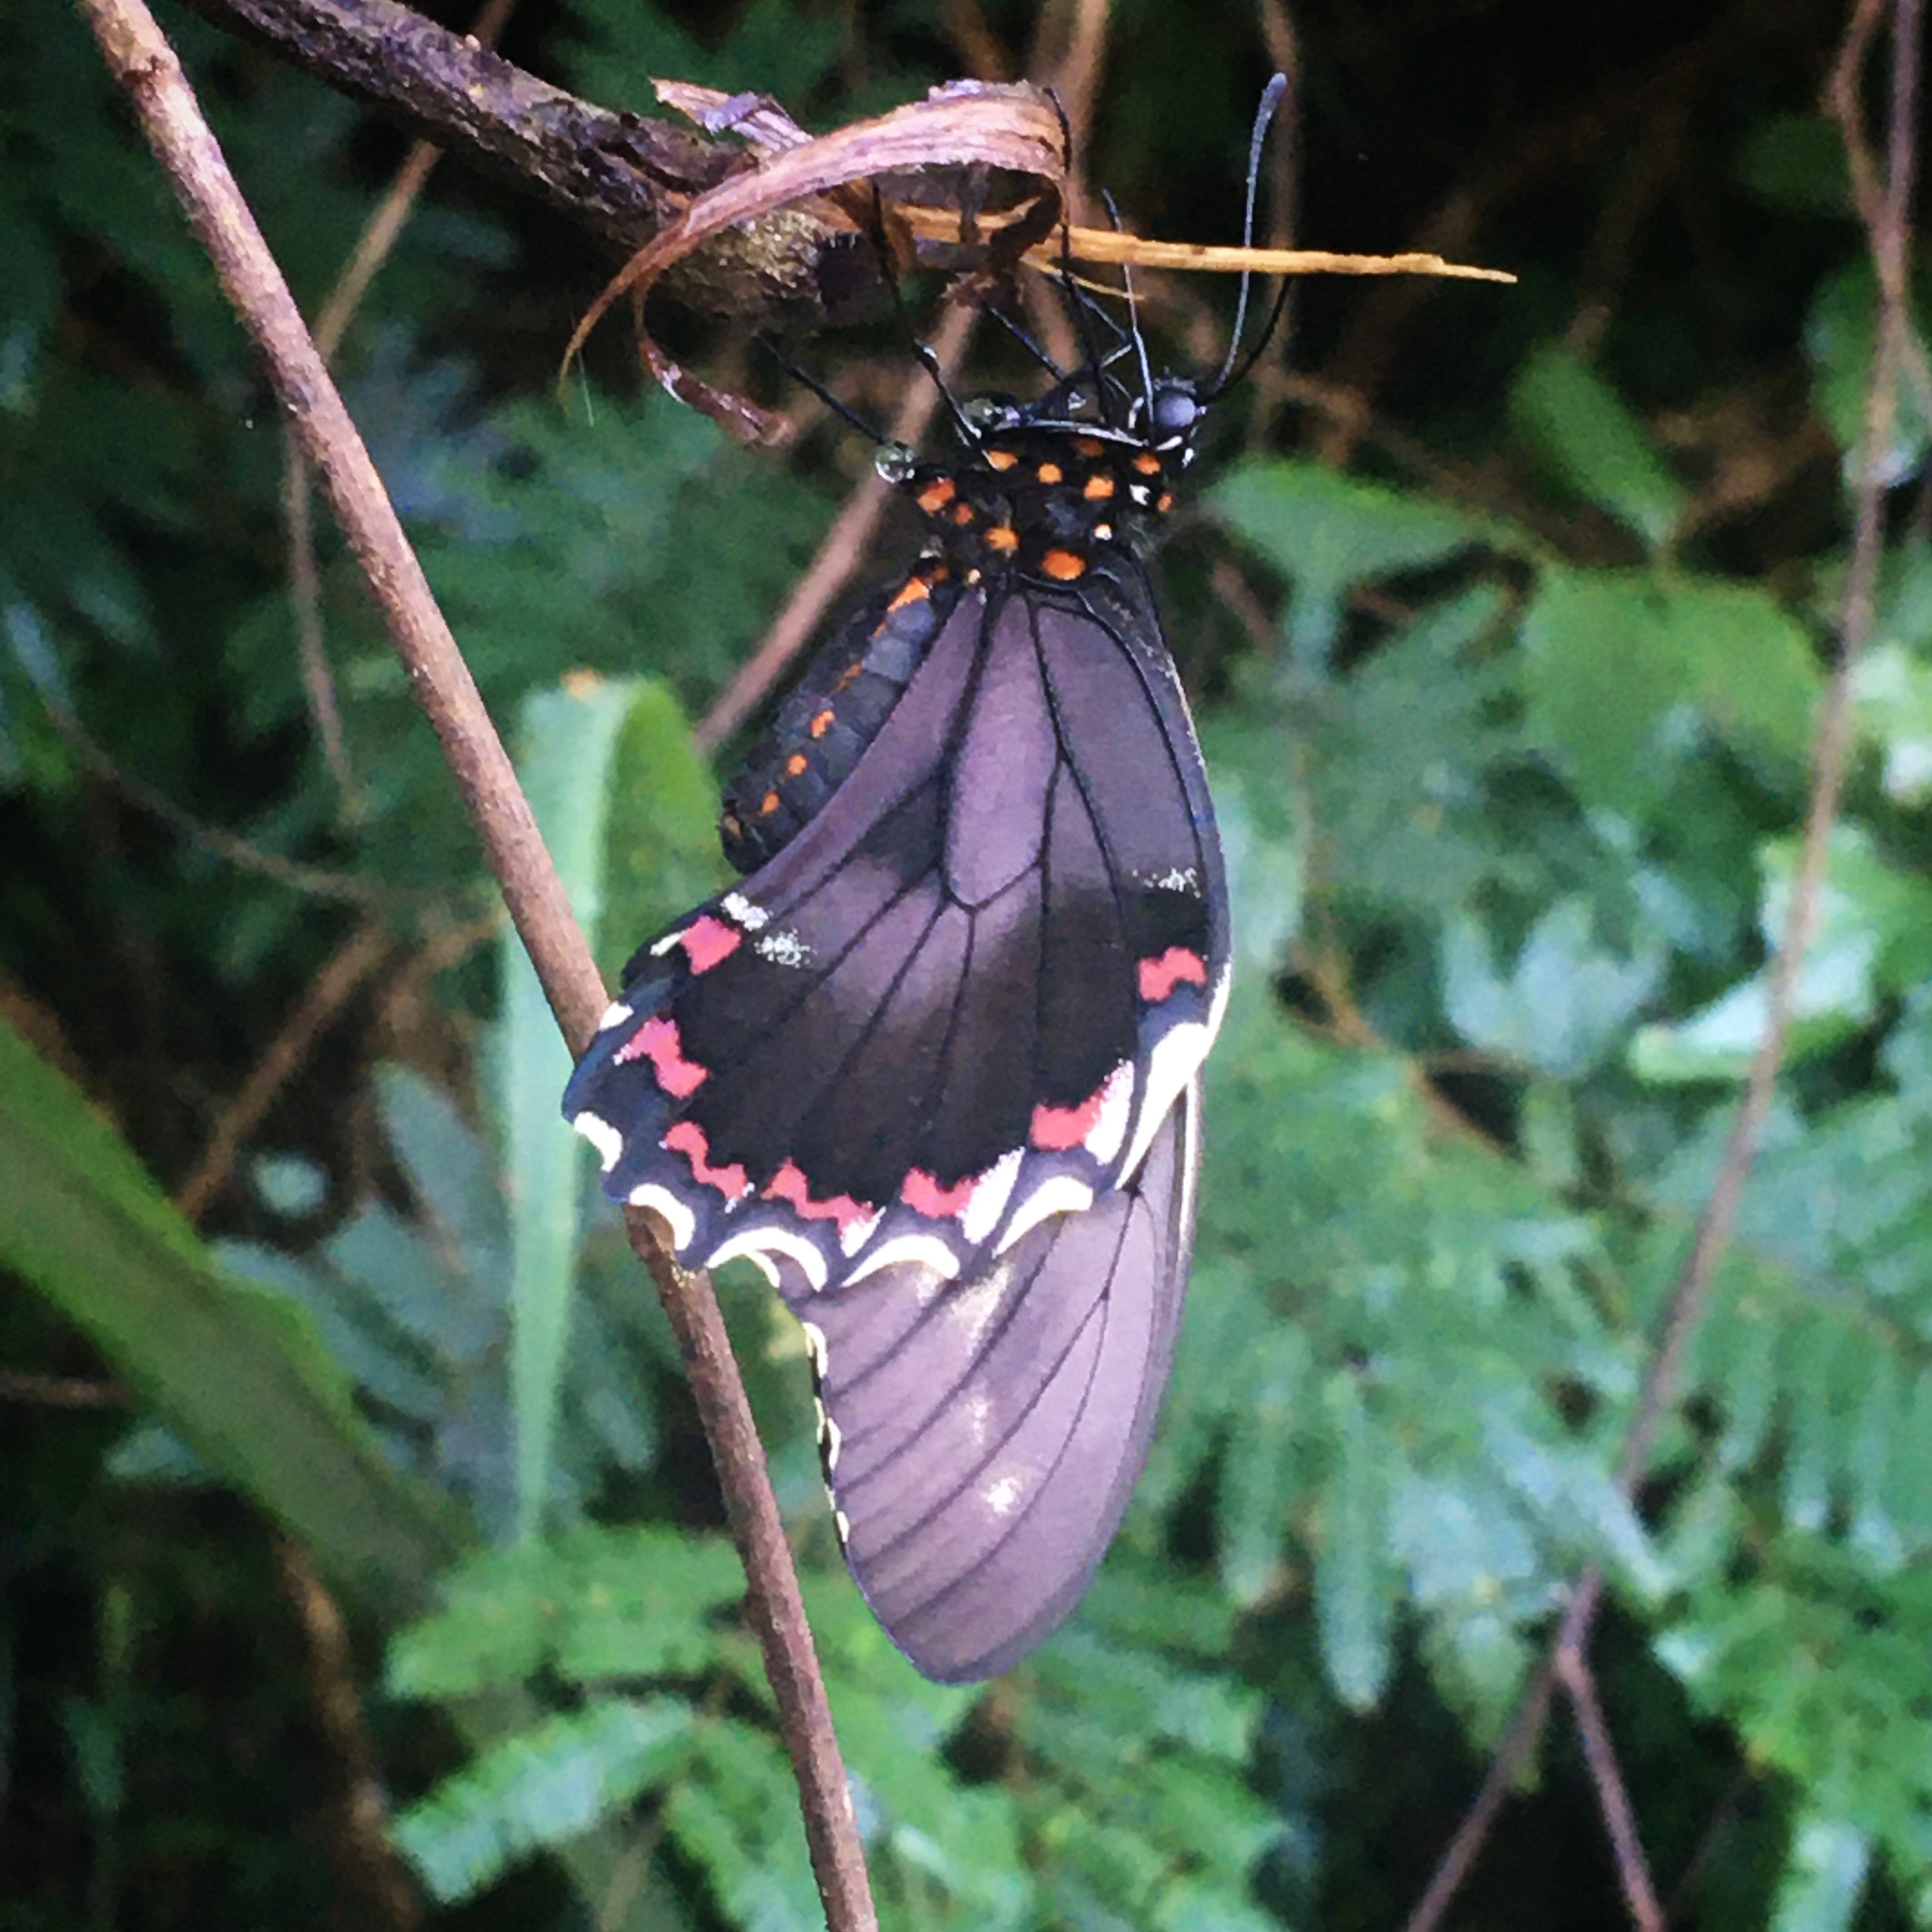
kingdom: Animalia
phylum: Arthropoda
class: Insecta
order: Lepidoptera
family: Papilionidae
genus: Battus
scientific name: Battus polydamas
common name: Polydamas swallowtail
